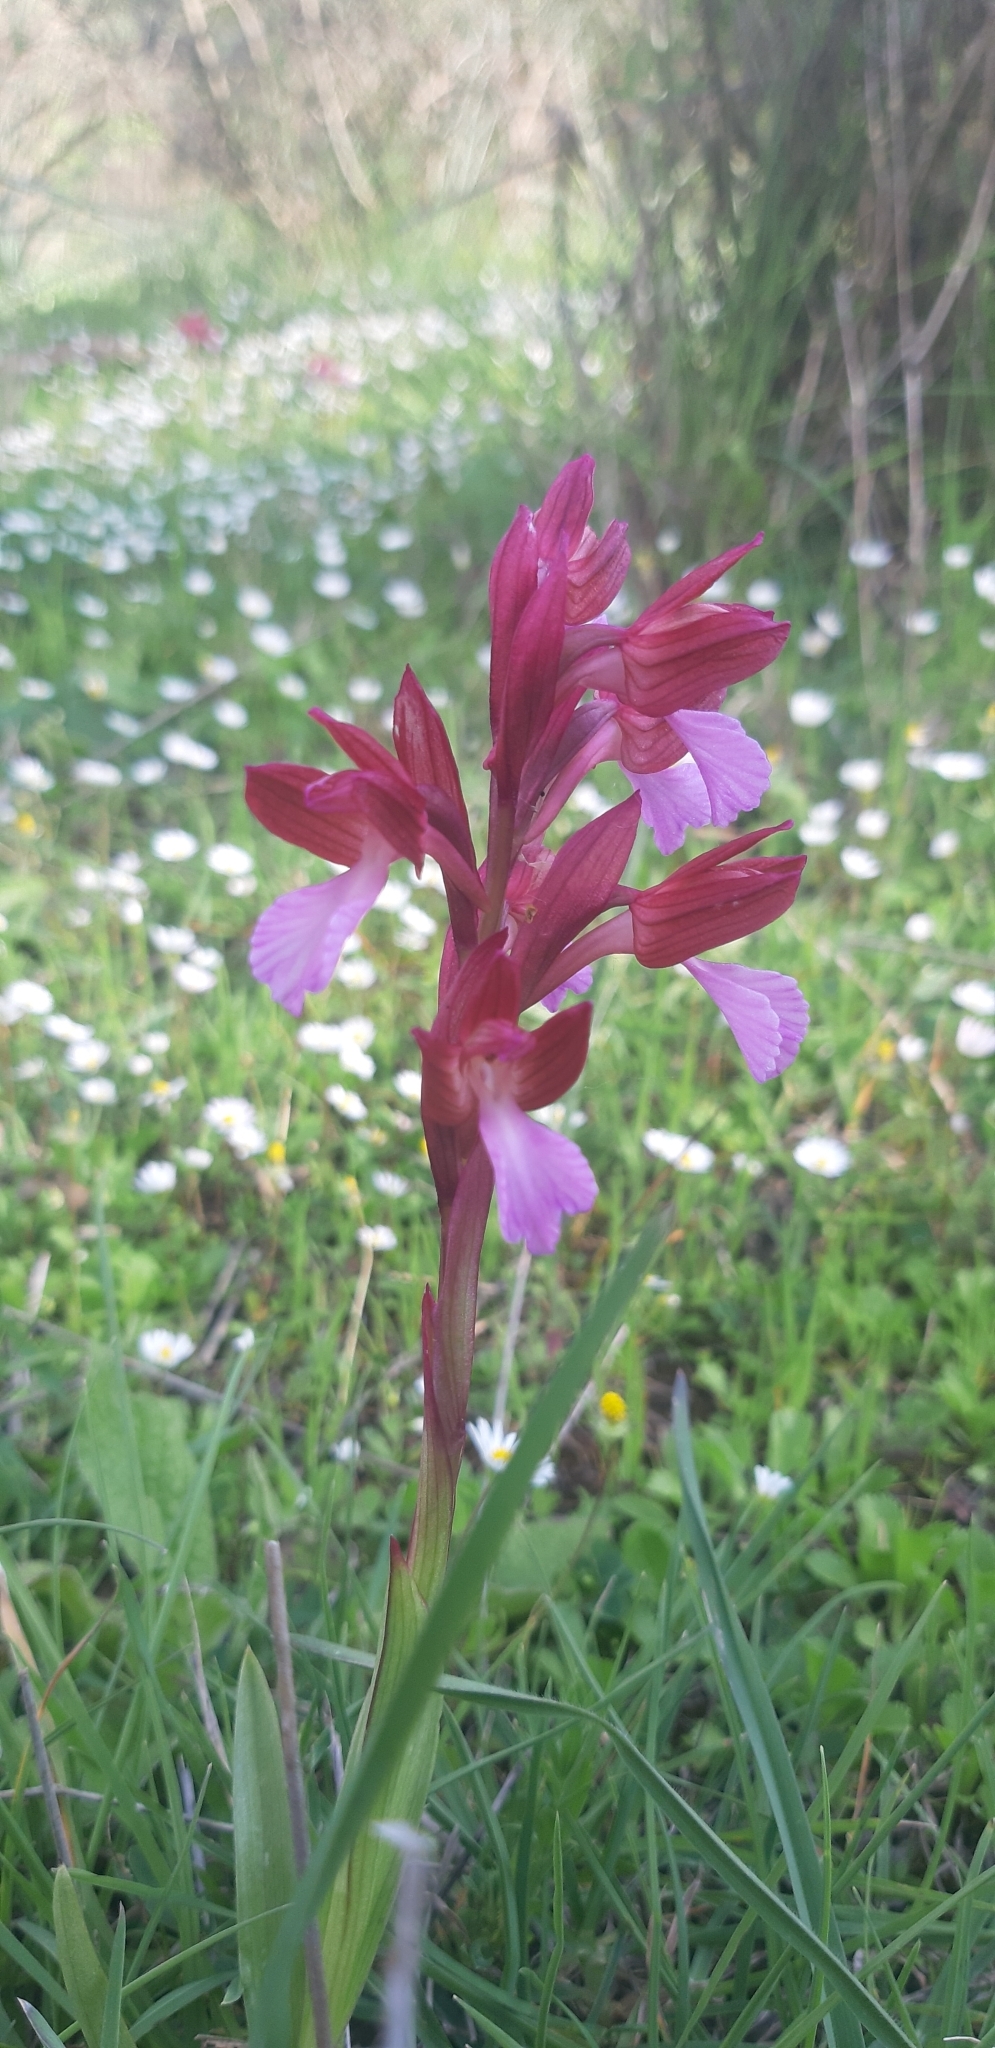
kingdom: Plantae
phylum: Tracheophyta
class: Liliopsida
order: Asparagales
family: Orchidaceae
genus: Anacamptis
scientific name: Anacamptis papilionacea
